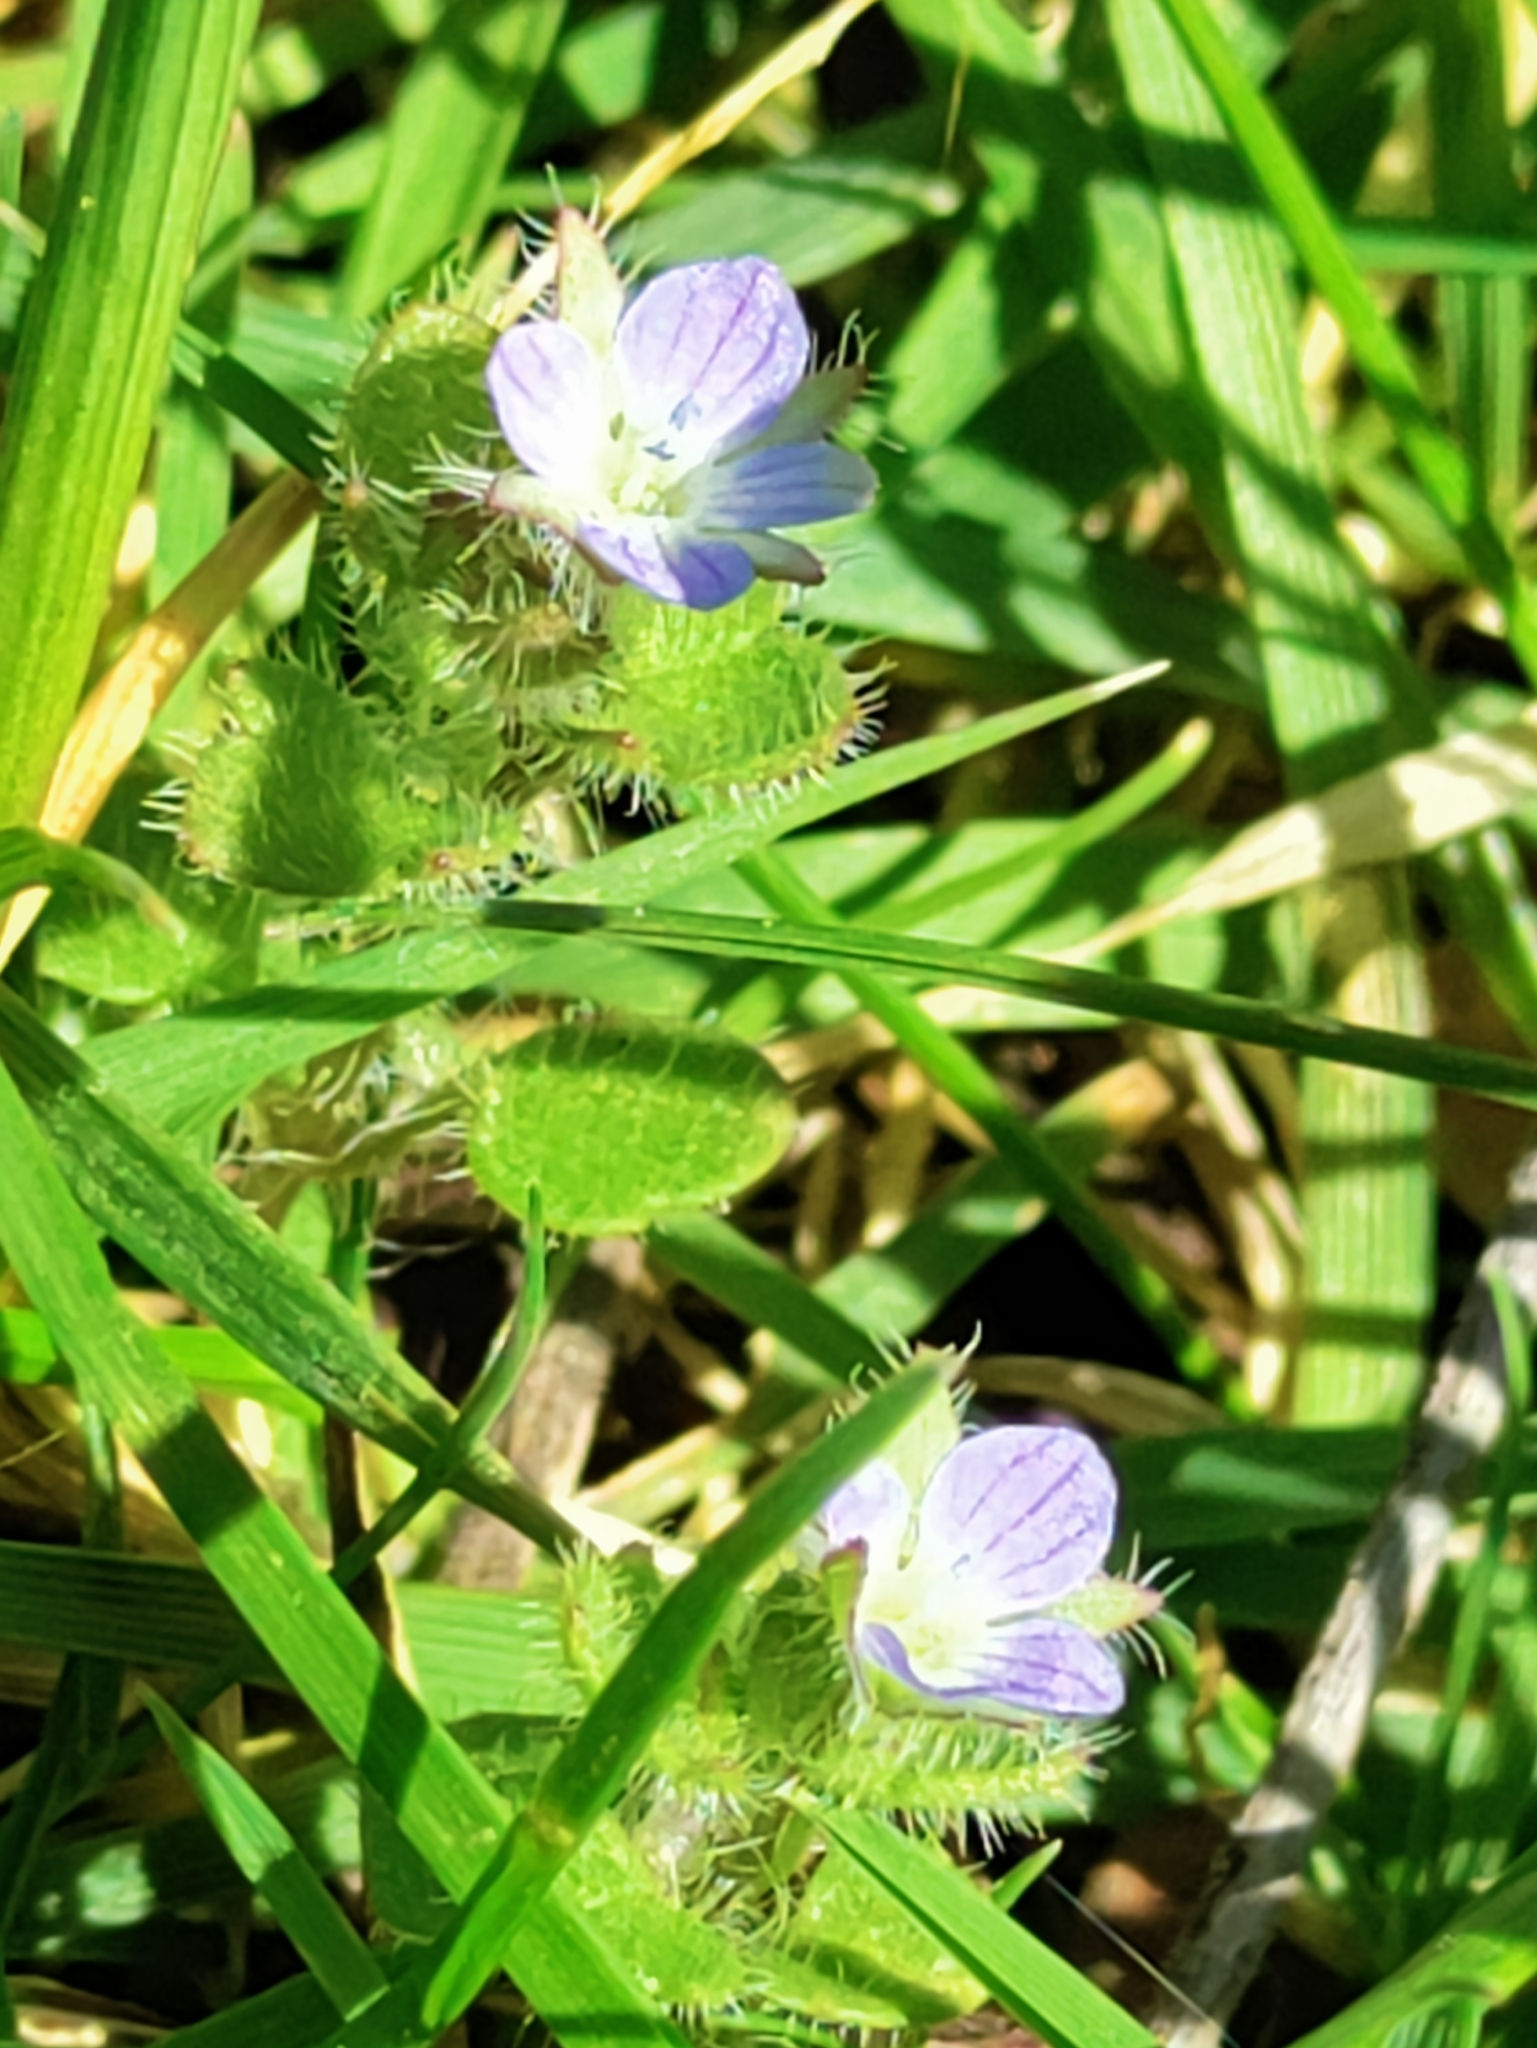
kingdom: Plantae
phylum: Tracheophyta
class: Magnoliopsida
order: Lamiales
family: Plantaginaceae
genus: Veronica
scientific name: Veronica hederifolia
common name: Ivy-leaved speedwell
